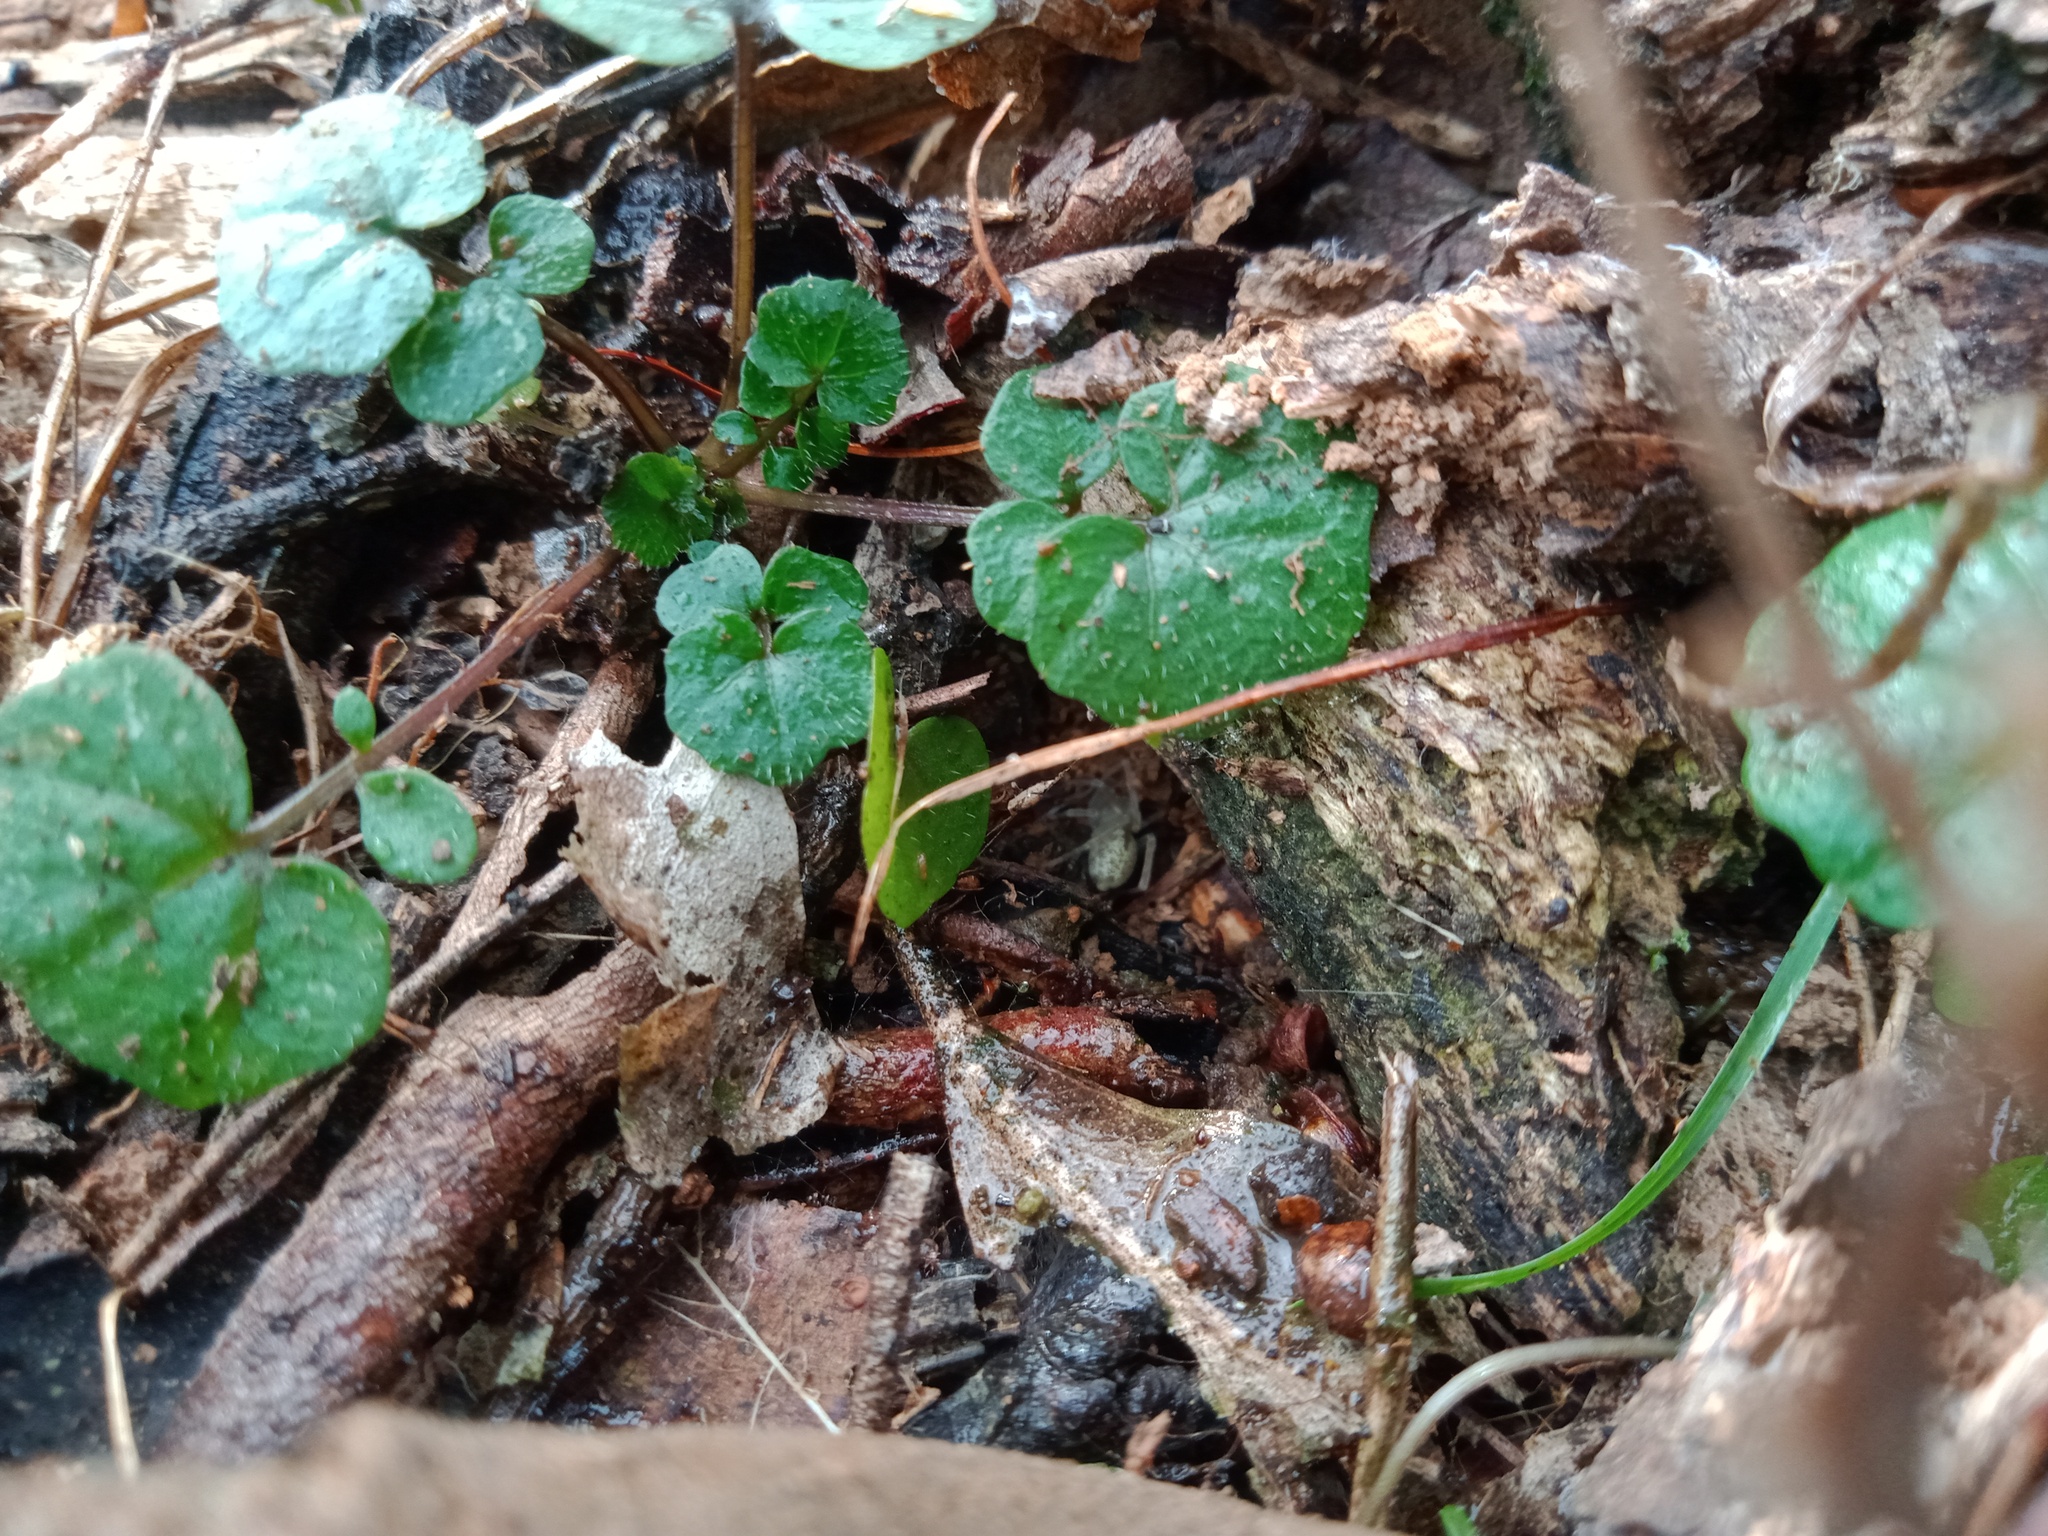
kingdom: Plantae
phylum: Tracheophyta
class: Magnoliopsida
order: Solanales
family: Convolvulaceae
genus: Dichondra
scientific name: Dichondra repens
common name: Kidneyweed
